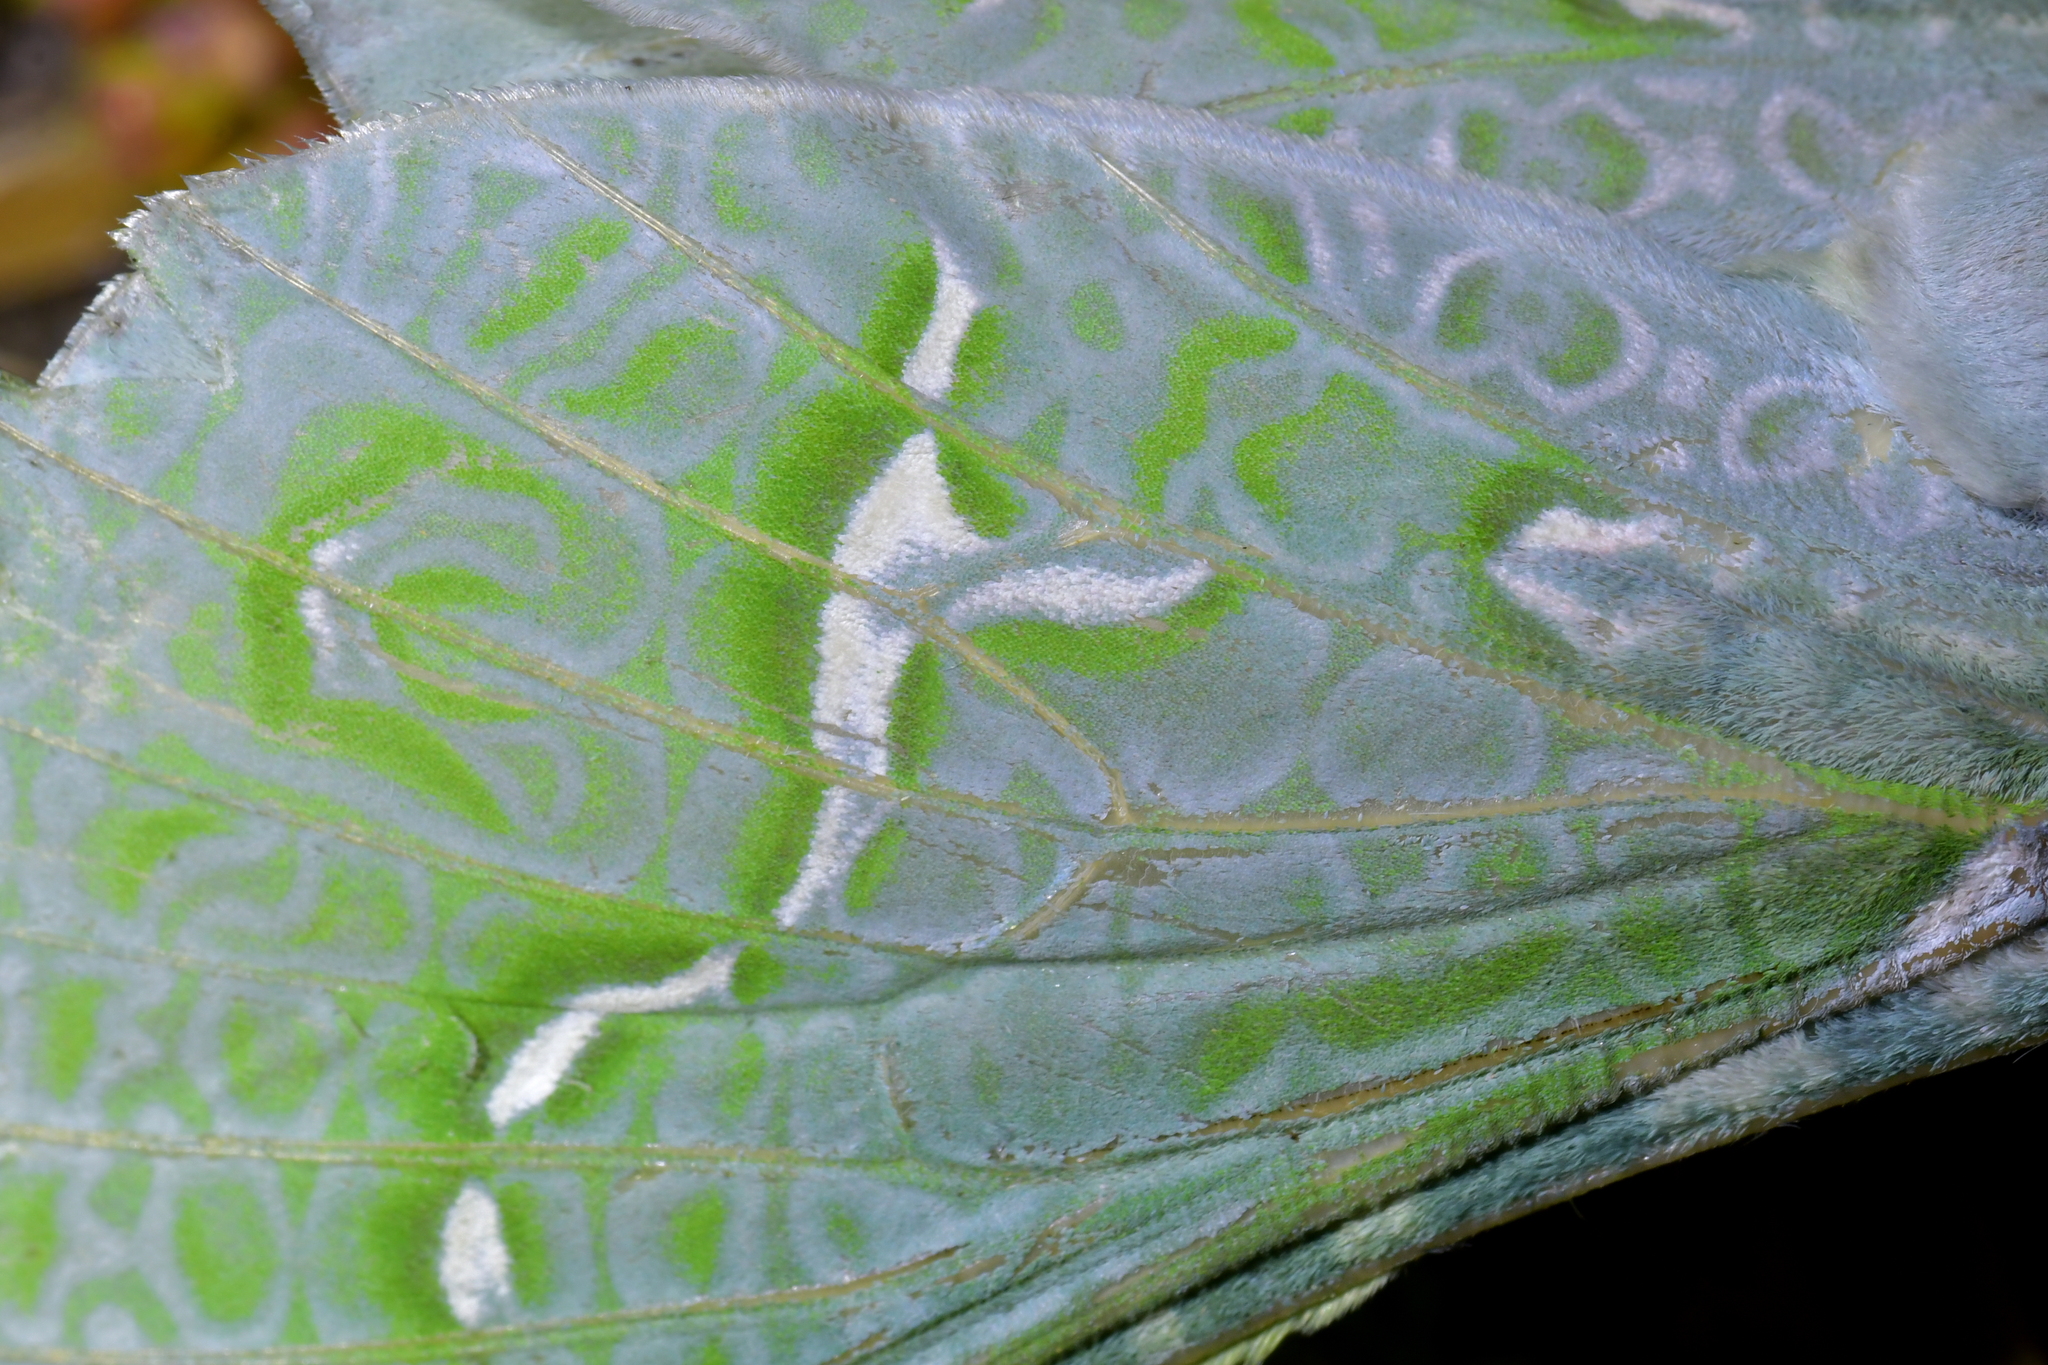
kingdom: Animalia
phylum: Arthropoda
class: Insecta
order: Lepidoptera
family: Hepialidae
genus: Aenetus
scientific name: Aenetus virescens
